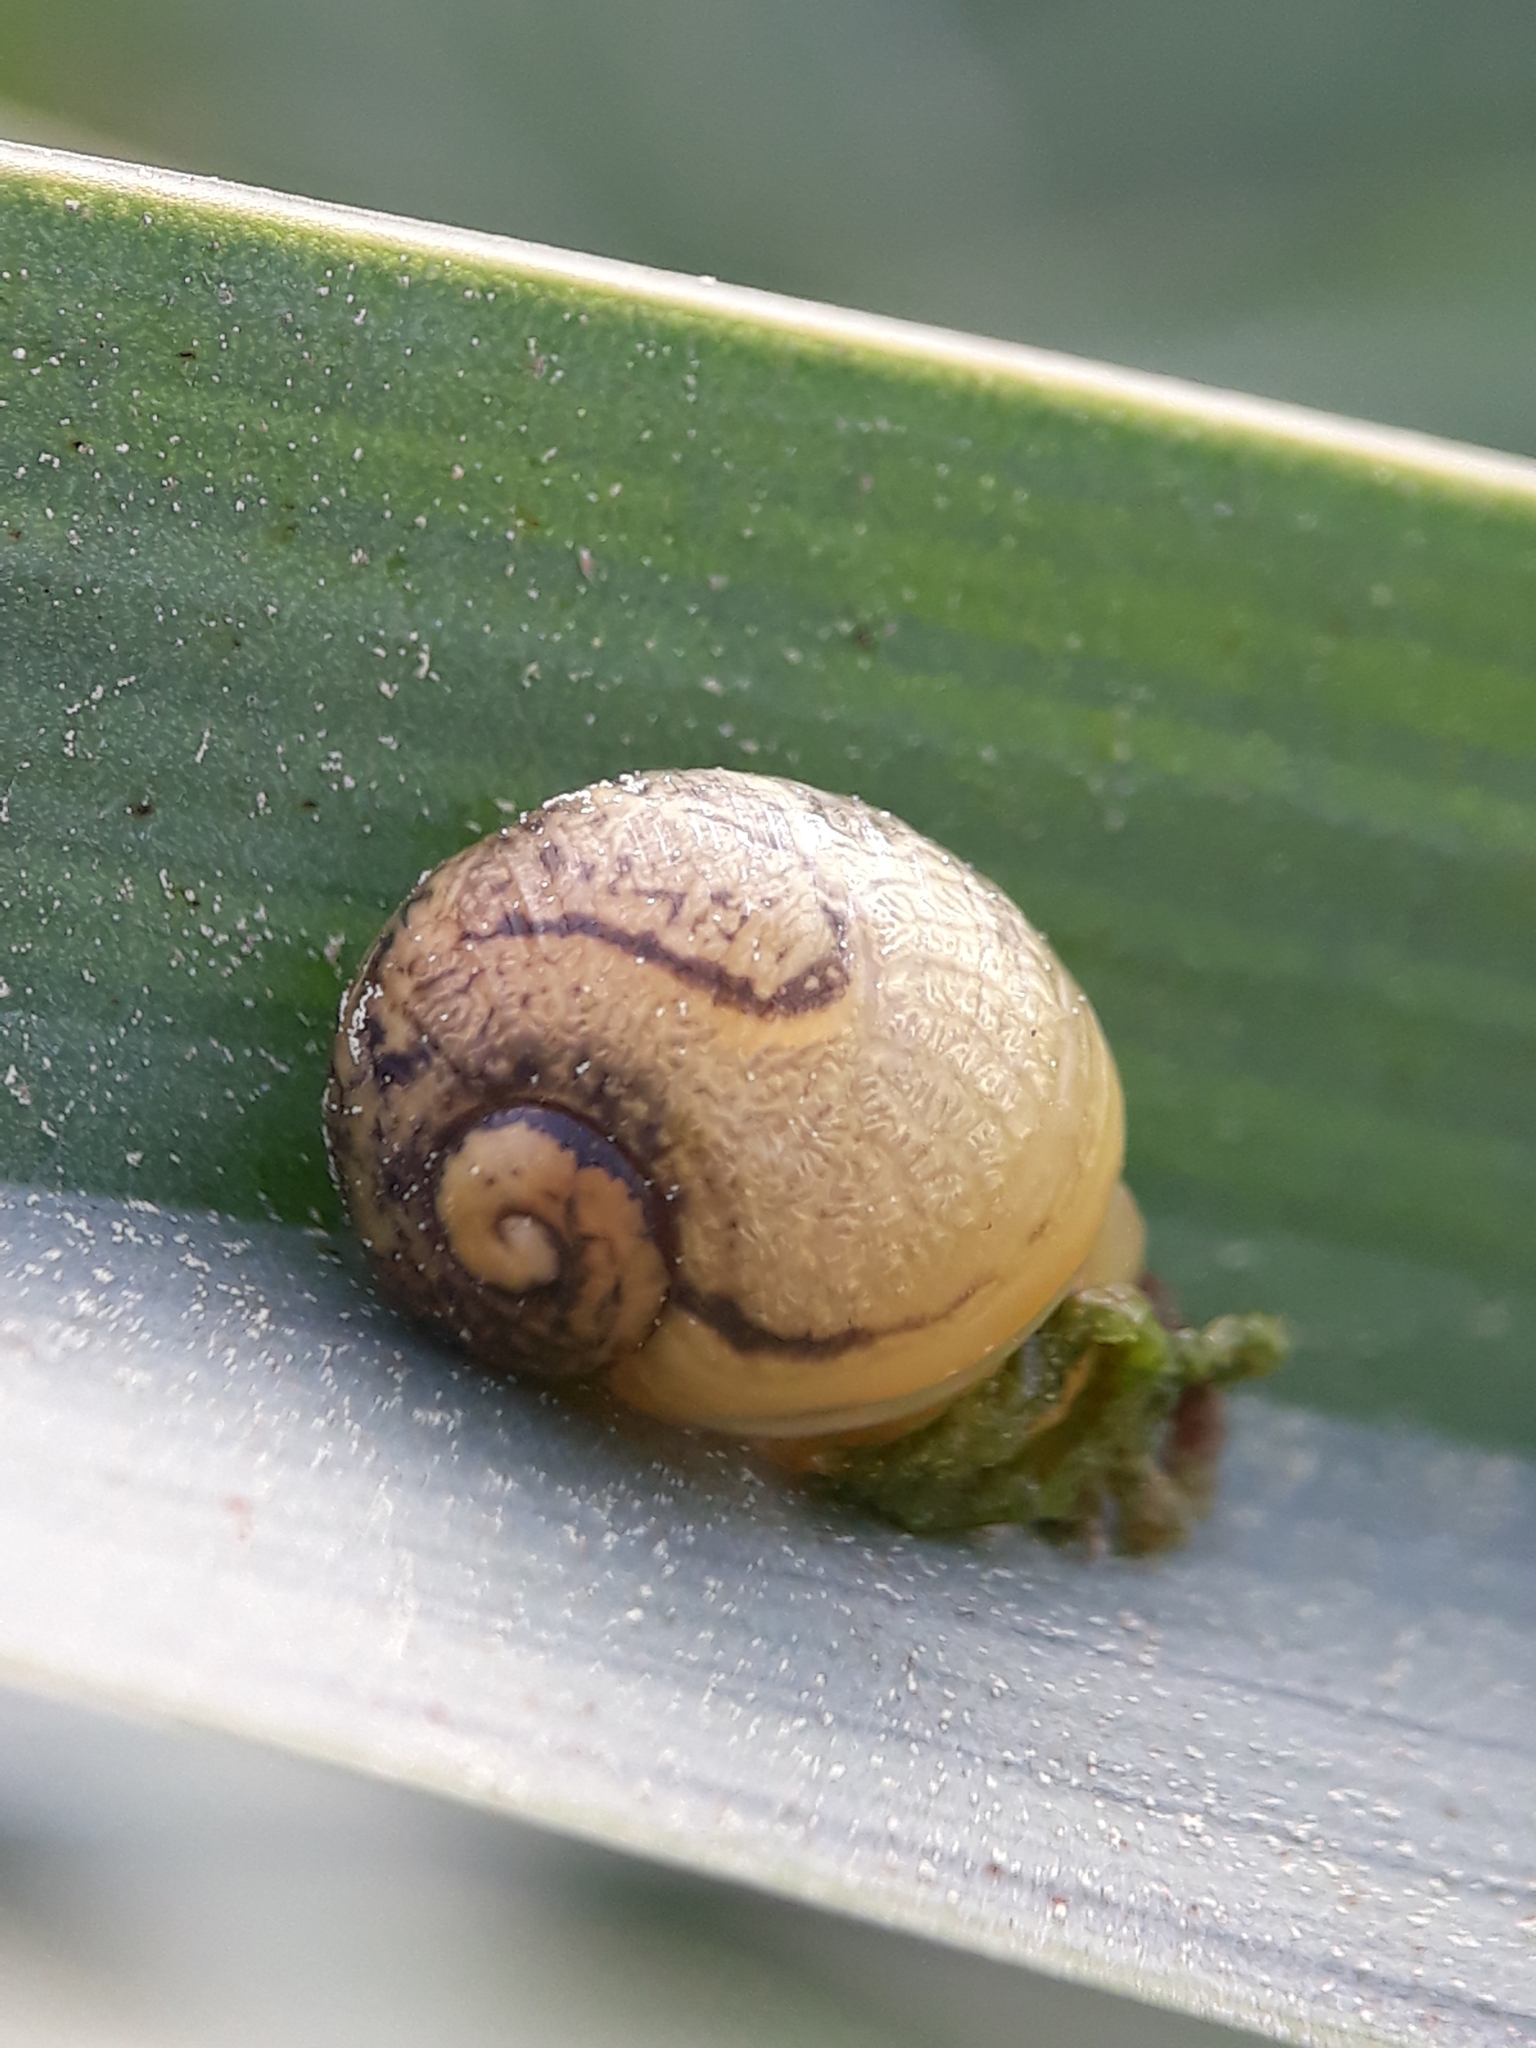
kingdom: Animalia
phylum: Mollusca
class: Gastropoda
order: Stylommatophora
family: Helicidae
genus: Cantareus
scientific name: Cantareus apertus
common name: Green gardensnail
